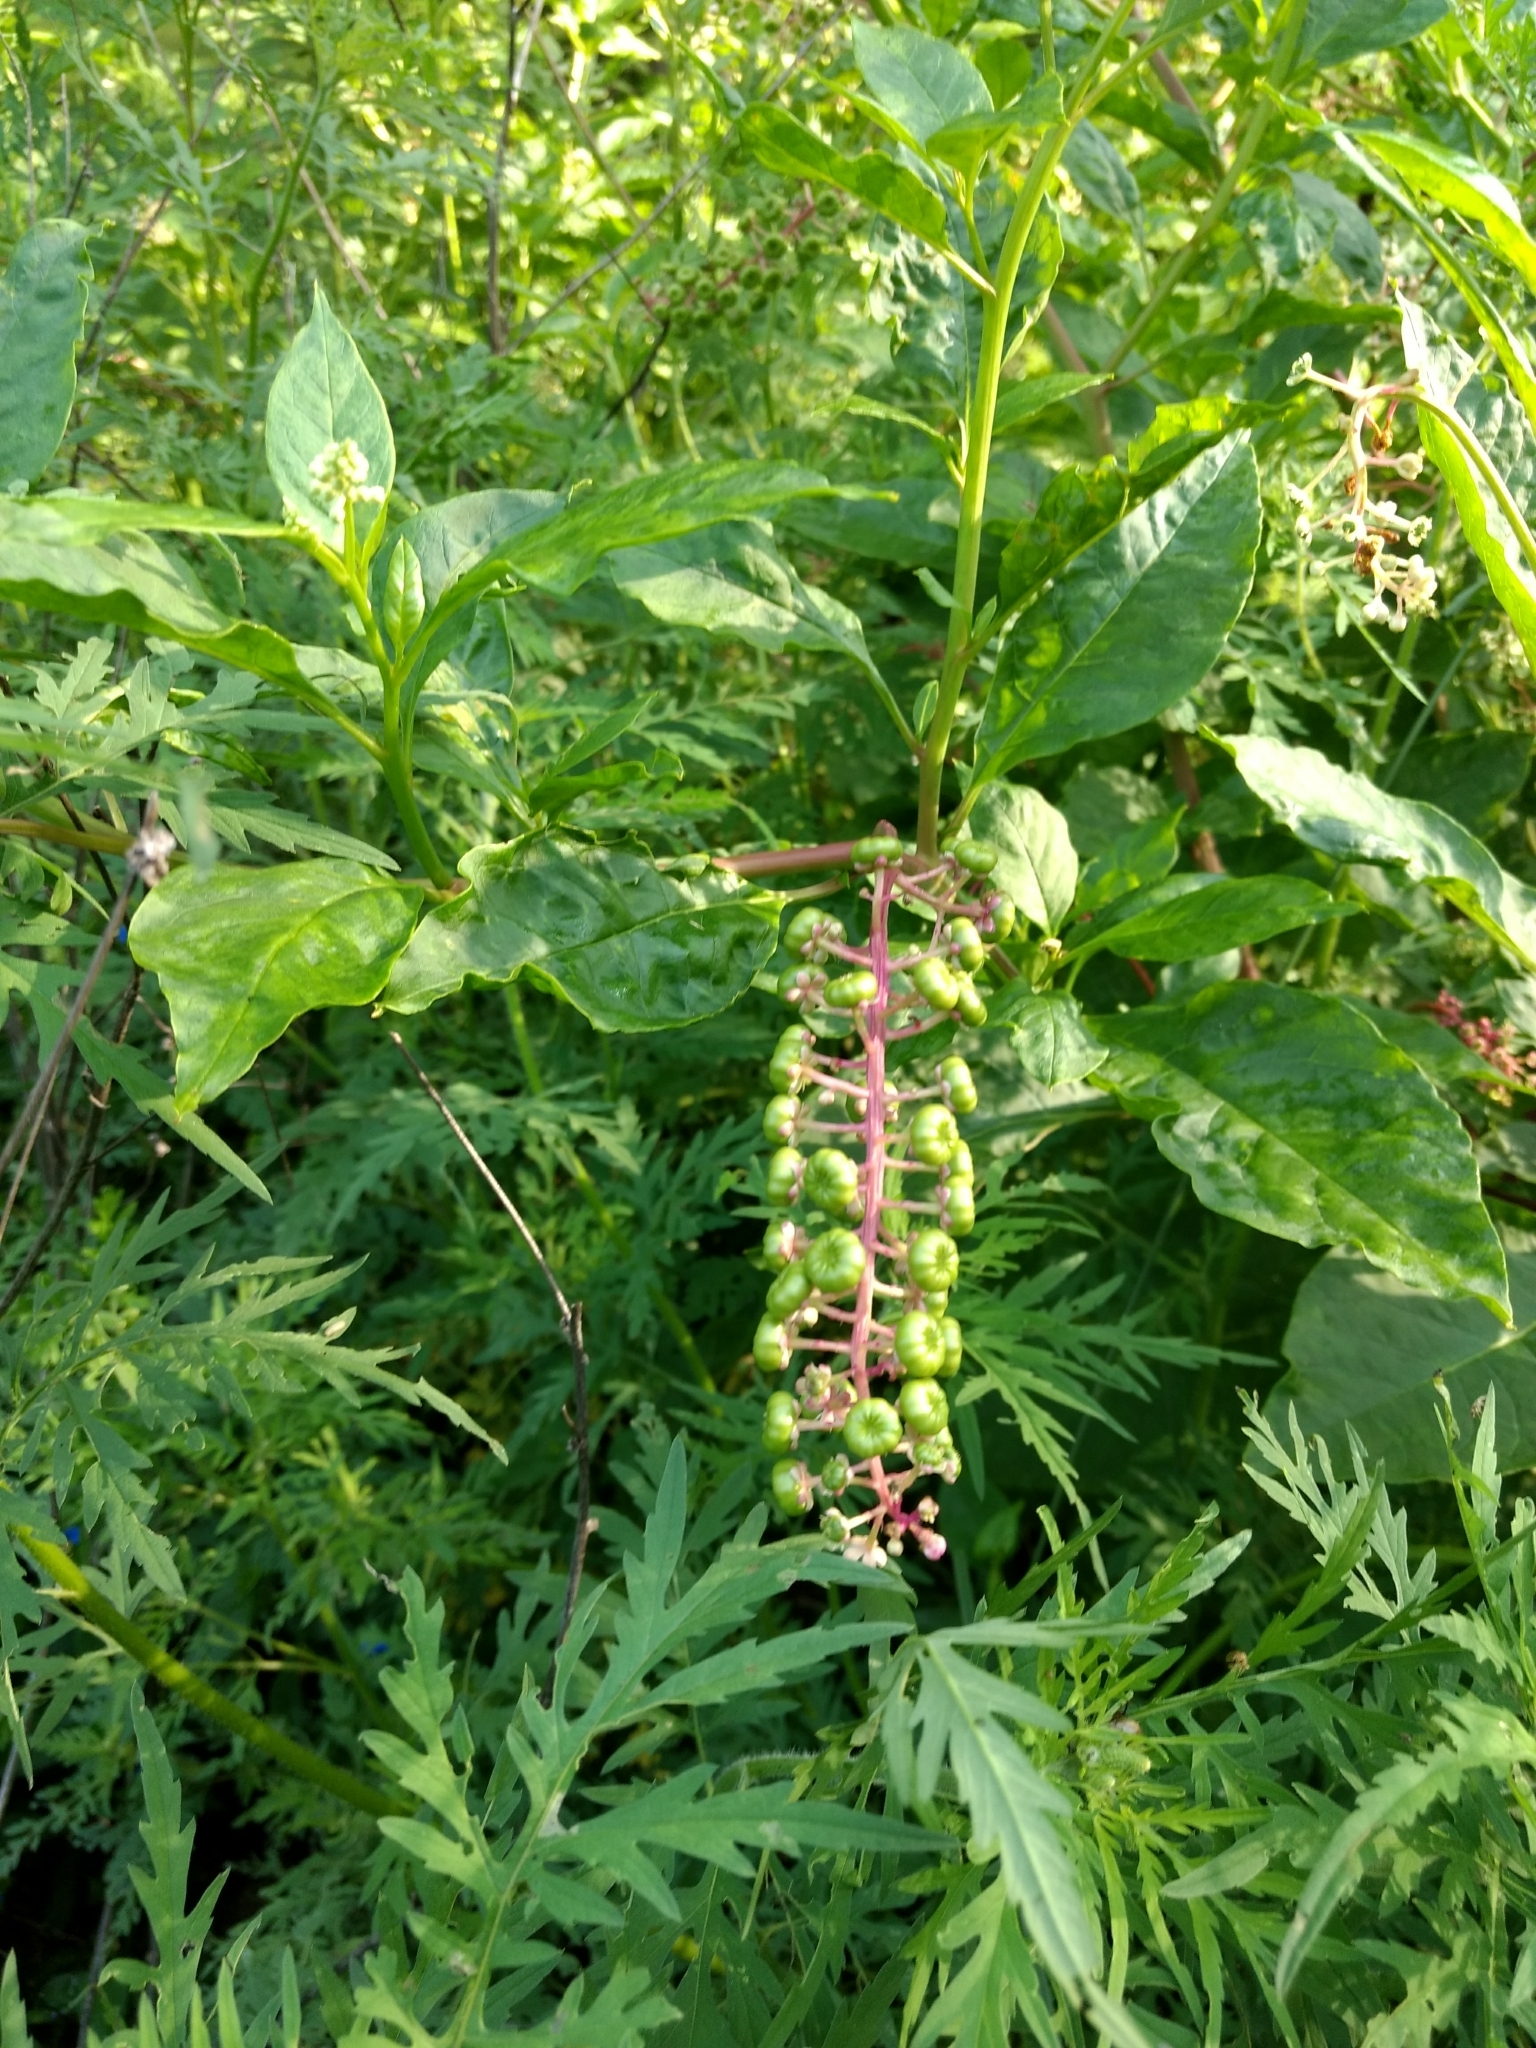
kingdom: Plantae
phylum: Tracheophyta
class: Magnoliopsida
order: Caryophyllales
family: Phytolaccaceae
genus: Phytolacca
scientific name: Phytolacca americana
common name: American pokeweed
